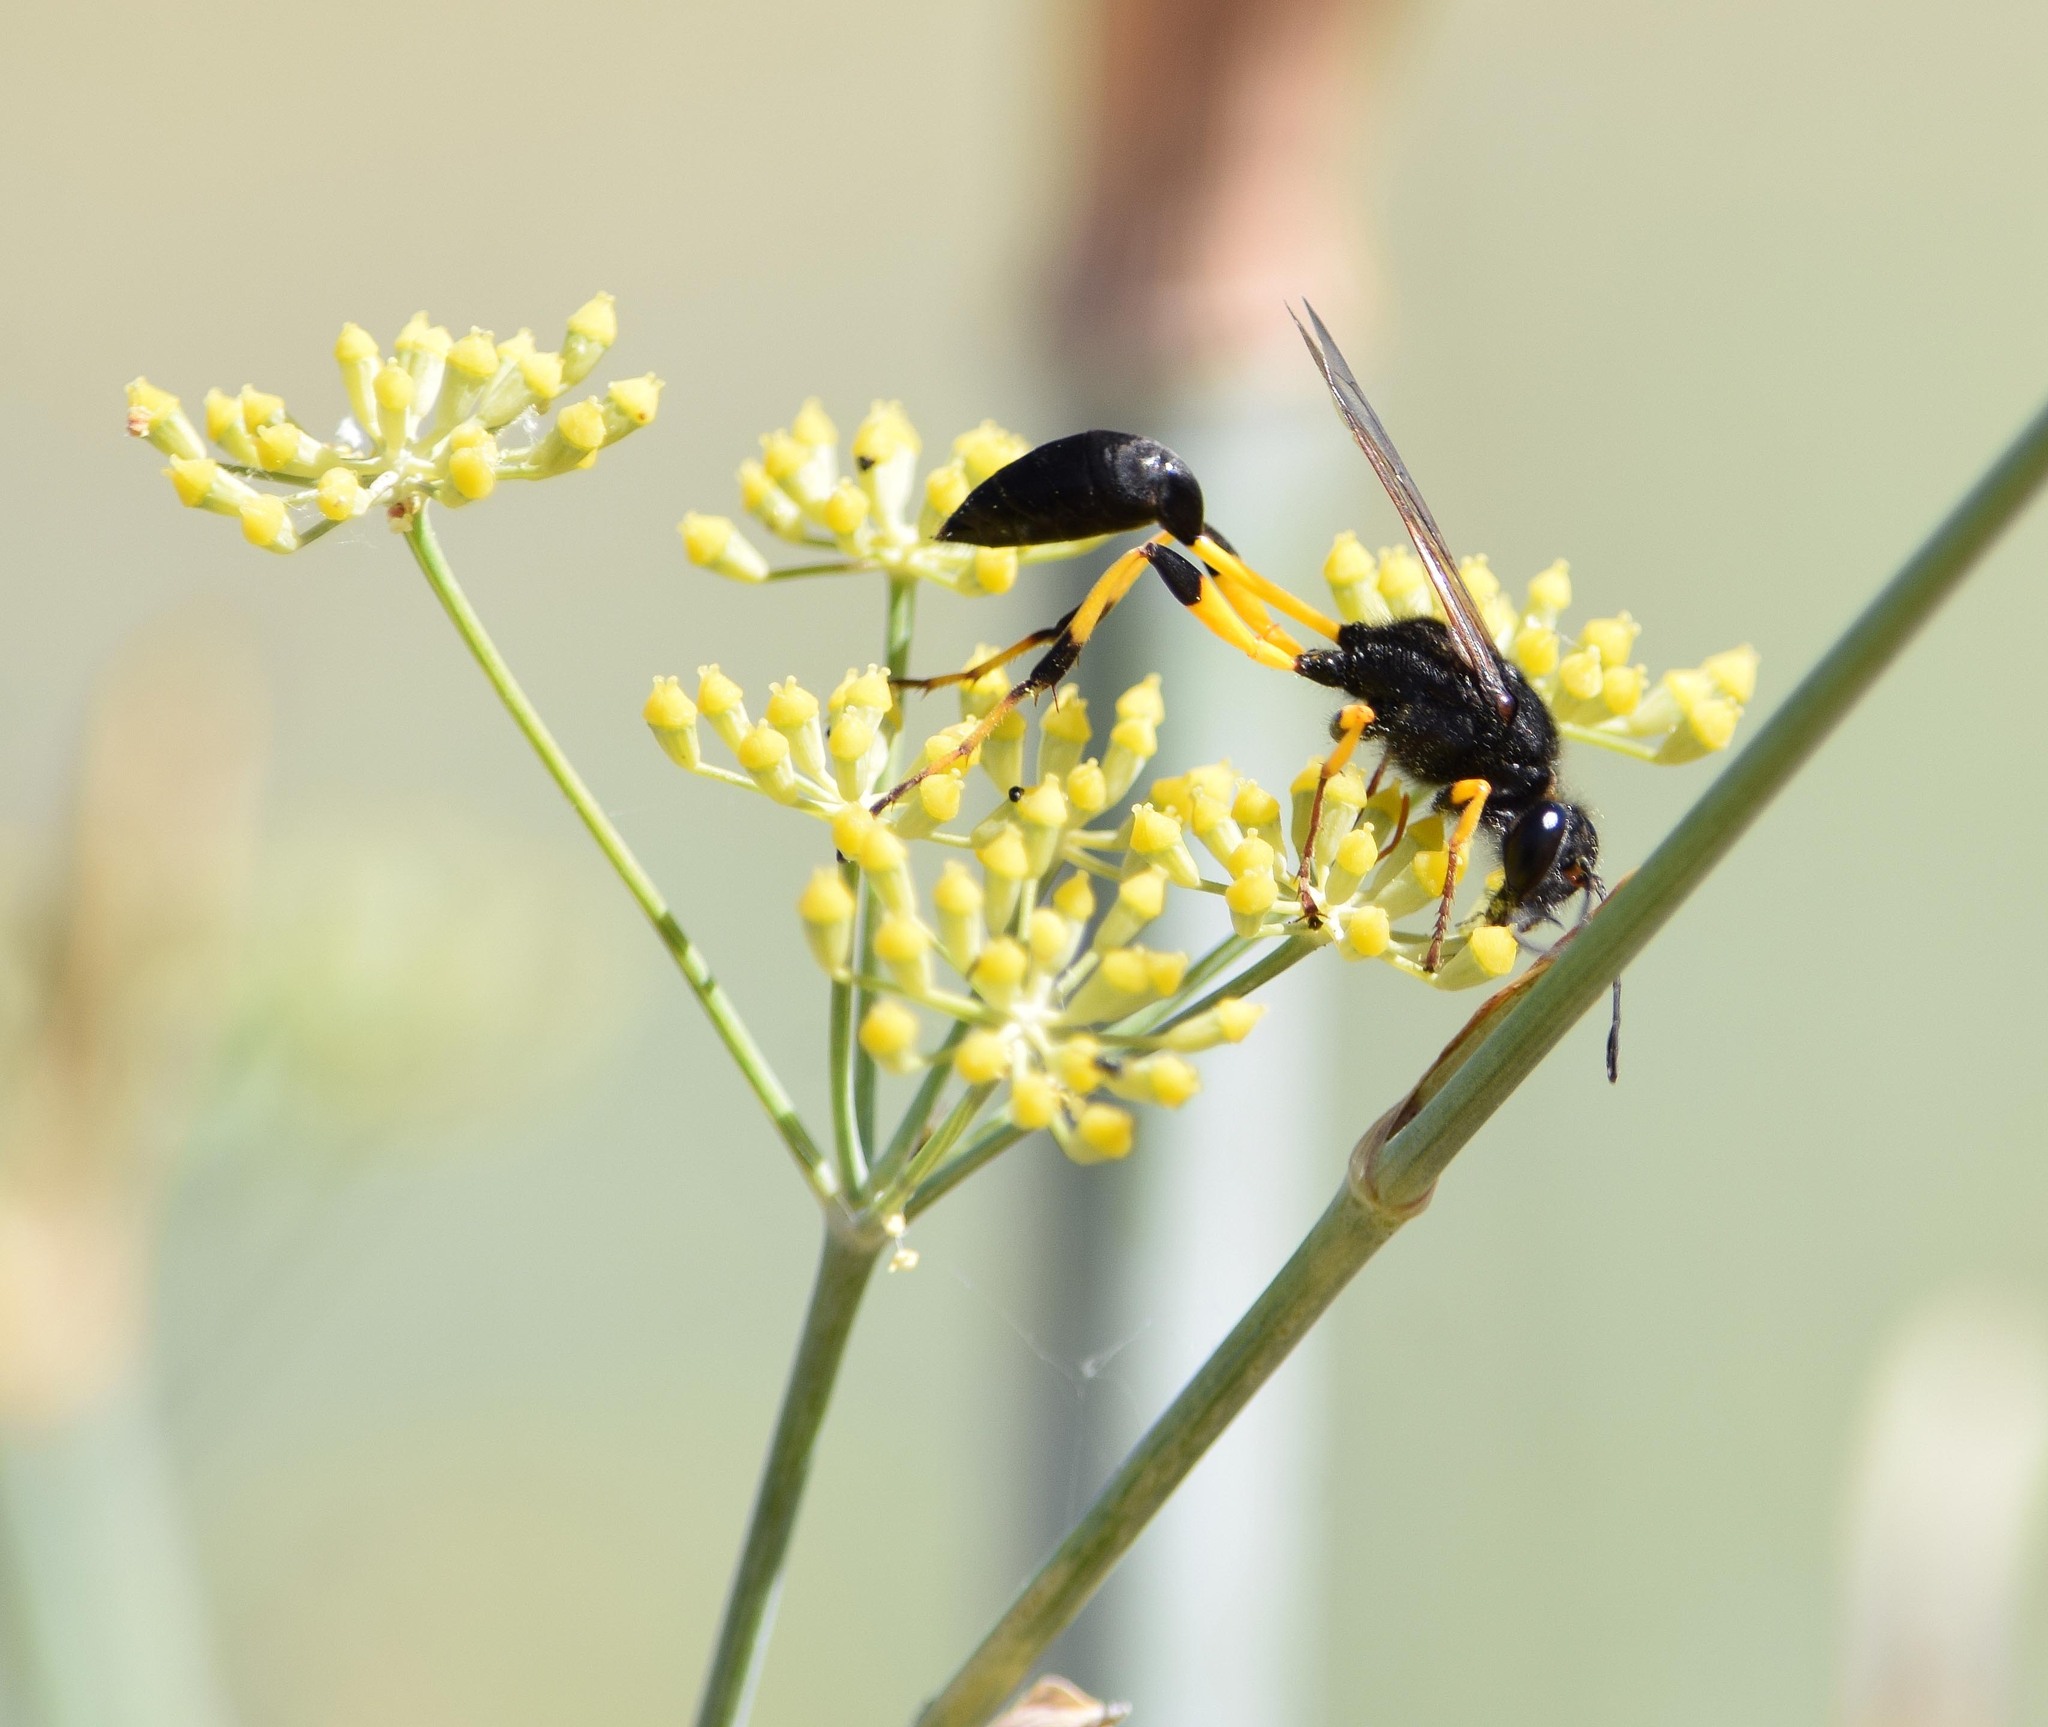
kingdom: Animalia
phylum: Arthropoda
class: Insecta
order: Hymenoptera
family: Sphecidae
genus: Sceliphron
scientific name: Sceliphron spirifex
